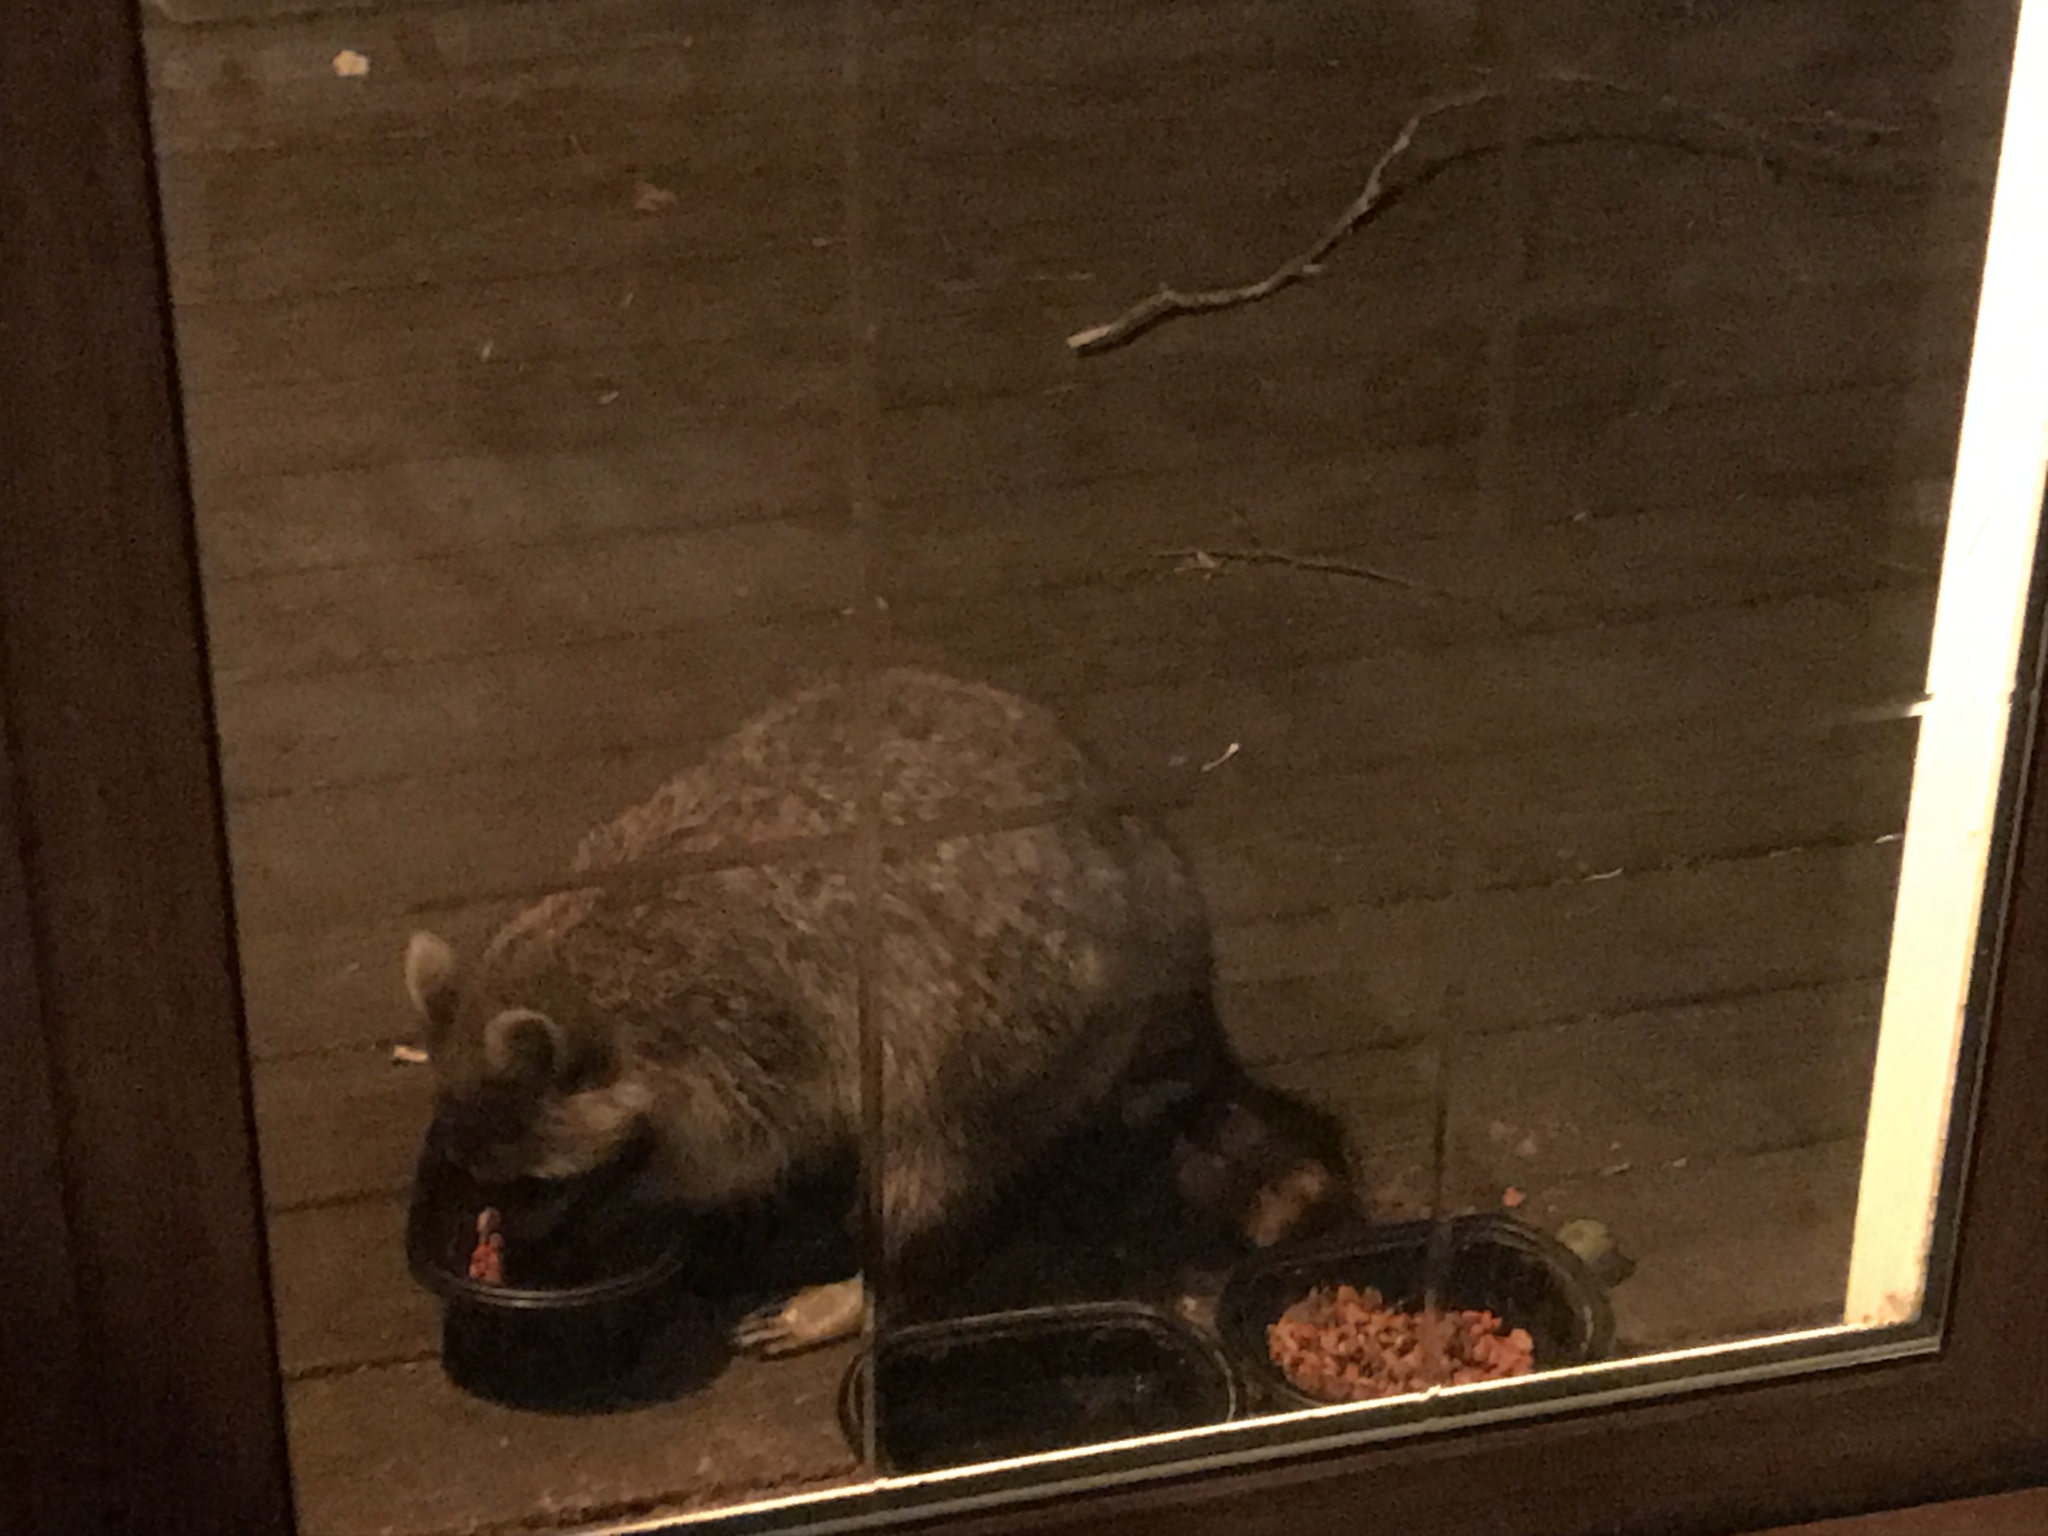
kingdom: Animalia
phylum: Chordata
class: Mammalia
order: Carnivora
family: Procyonidae
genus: Procyon
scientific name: Procyon lotor
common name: Raccoon
